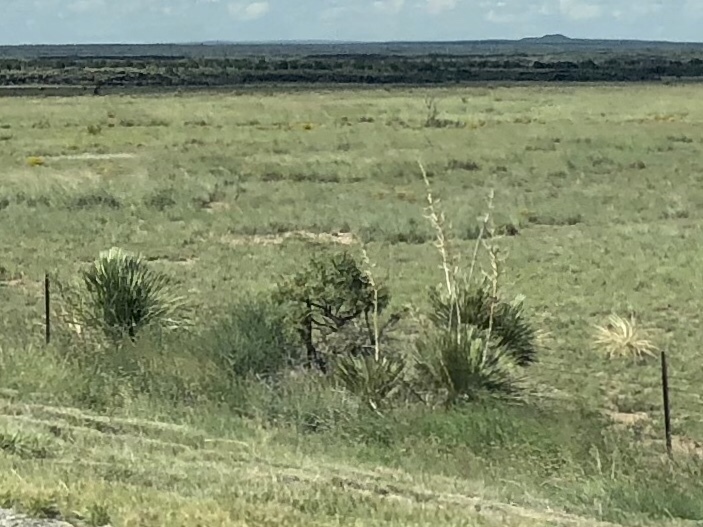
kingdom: Plantae
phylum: Tracheophyta
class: Liliopsida
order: Asparagales
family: Asparagaceae
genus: Yucca
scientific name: Yucca elata
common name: Palmella
